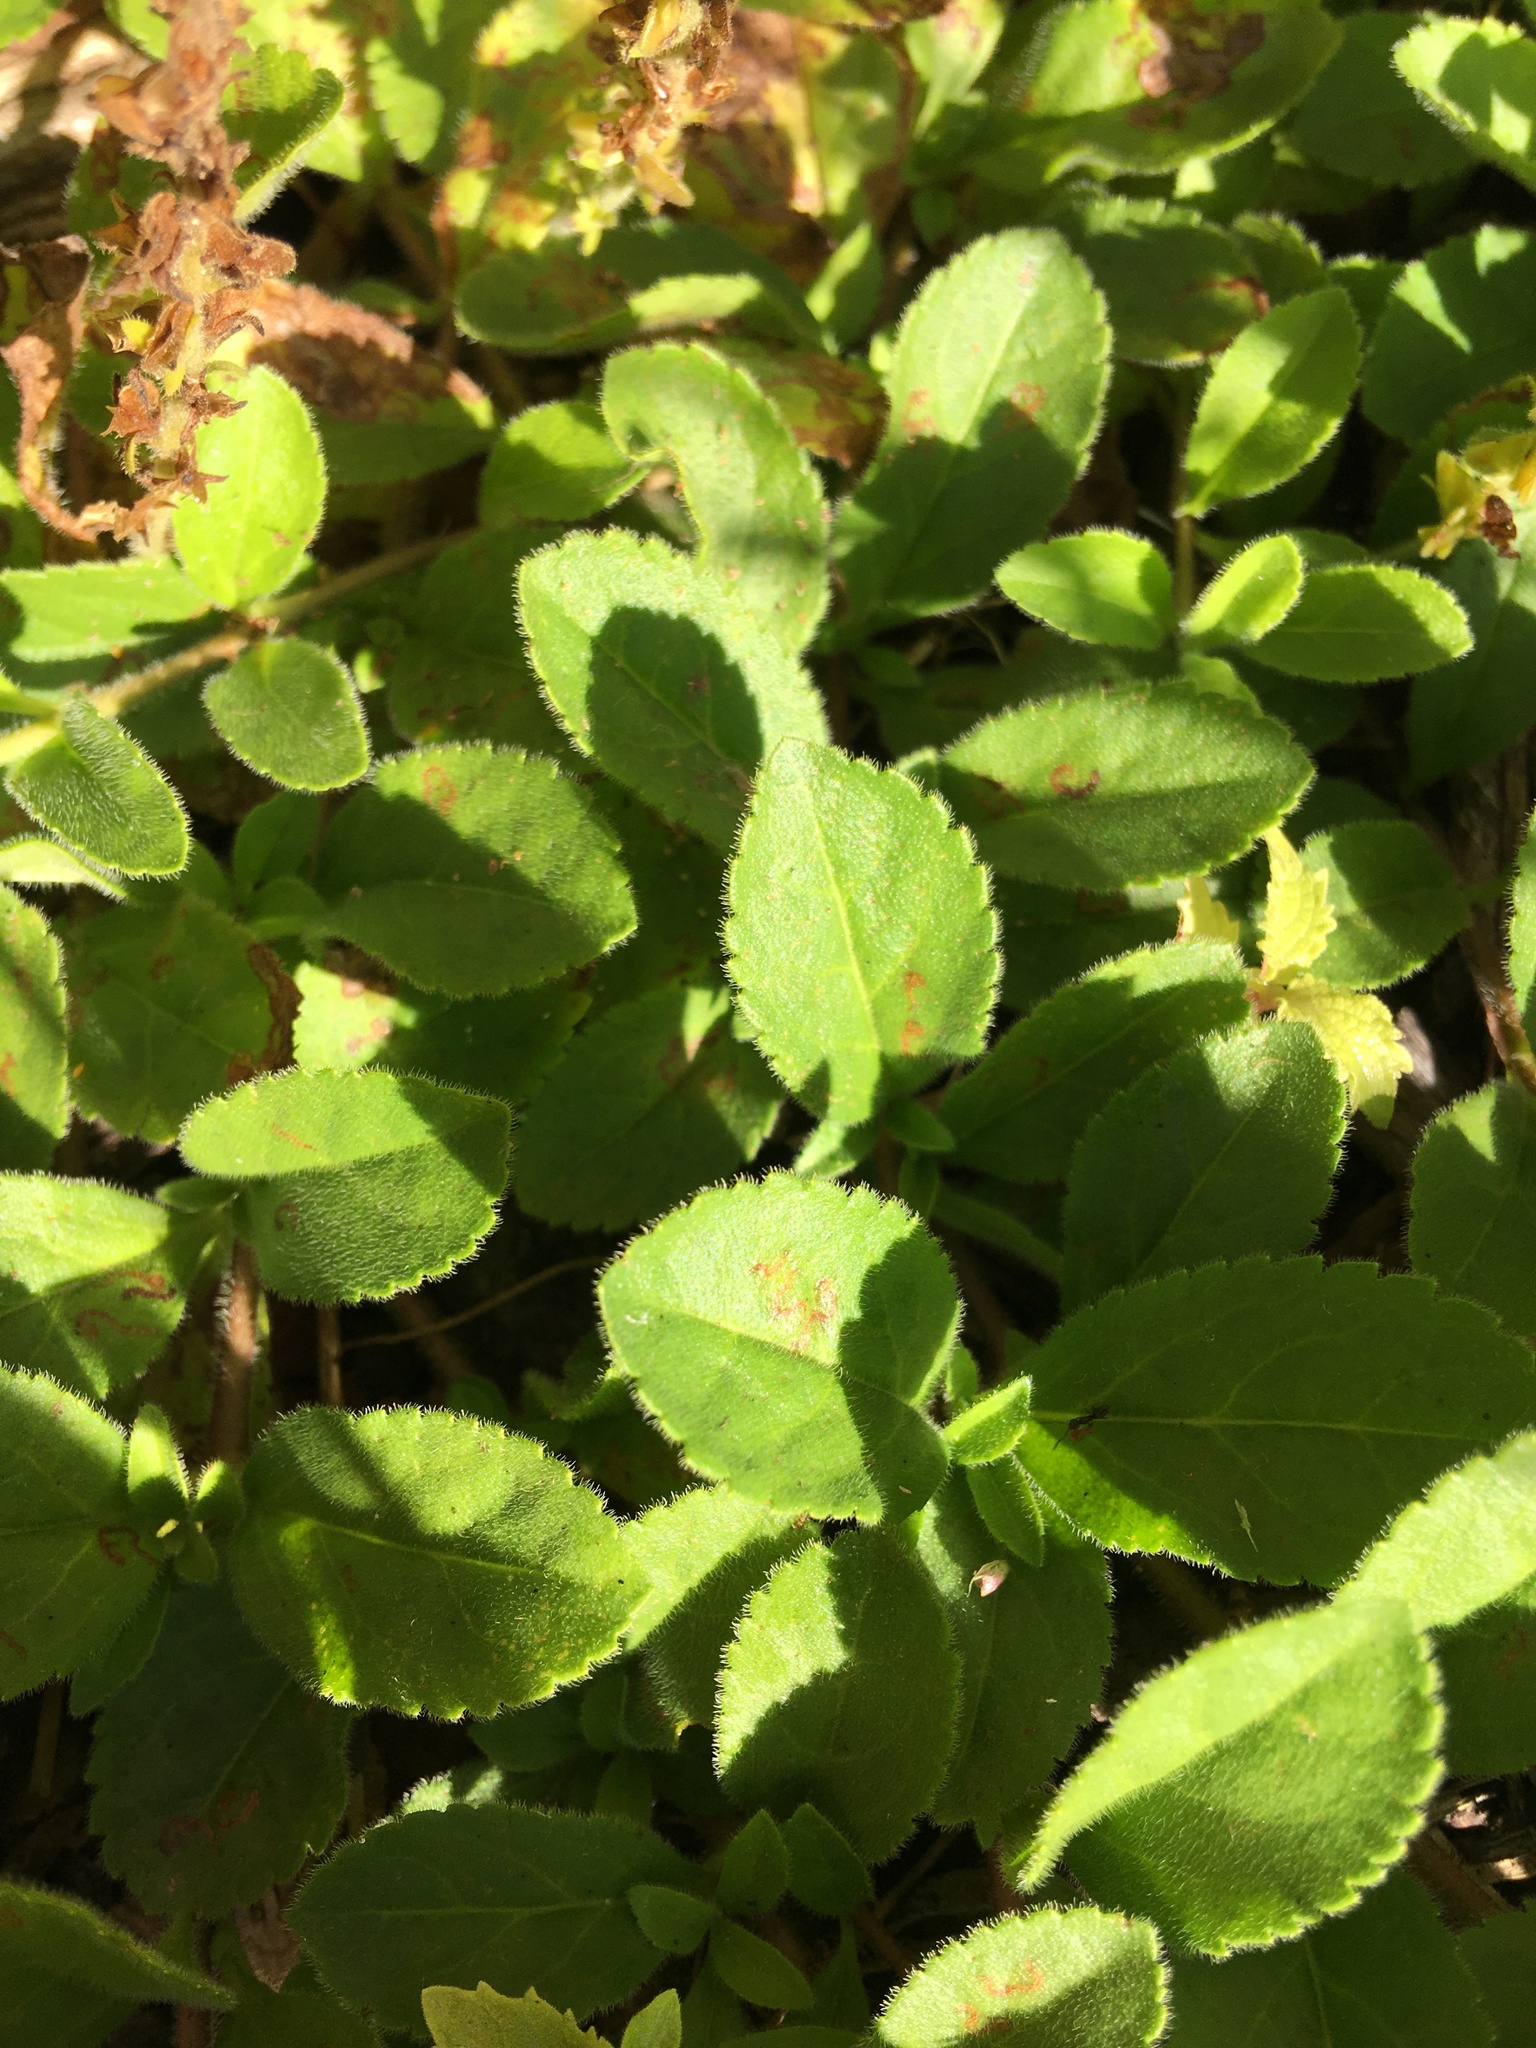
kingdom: Plantae
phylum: Tracheophyta
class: Magnoliopsida
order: Lamiales
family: Plantaginaceae
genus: Veronica
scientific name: Veronica officinalis
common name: Common speedwell
